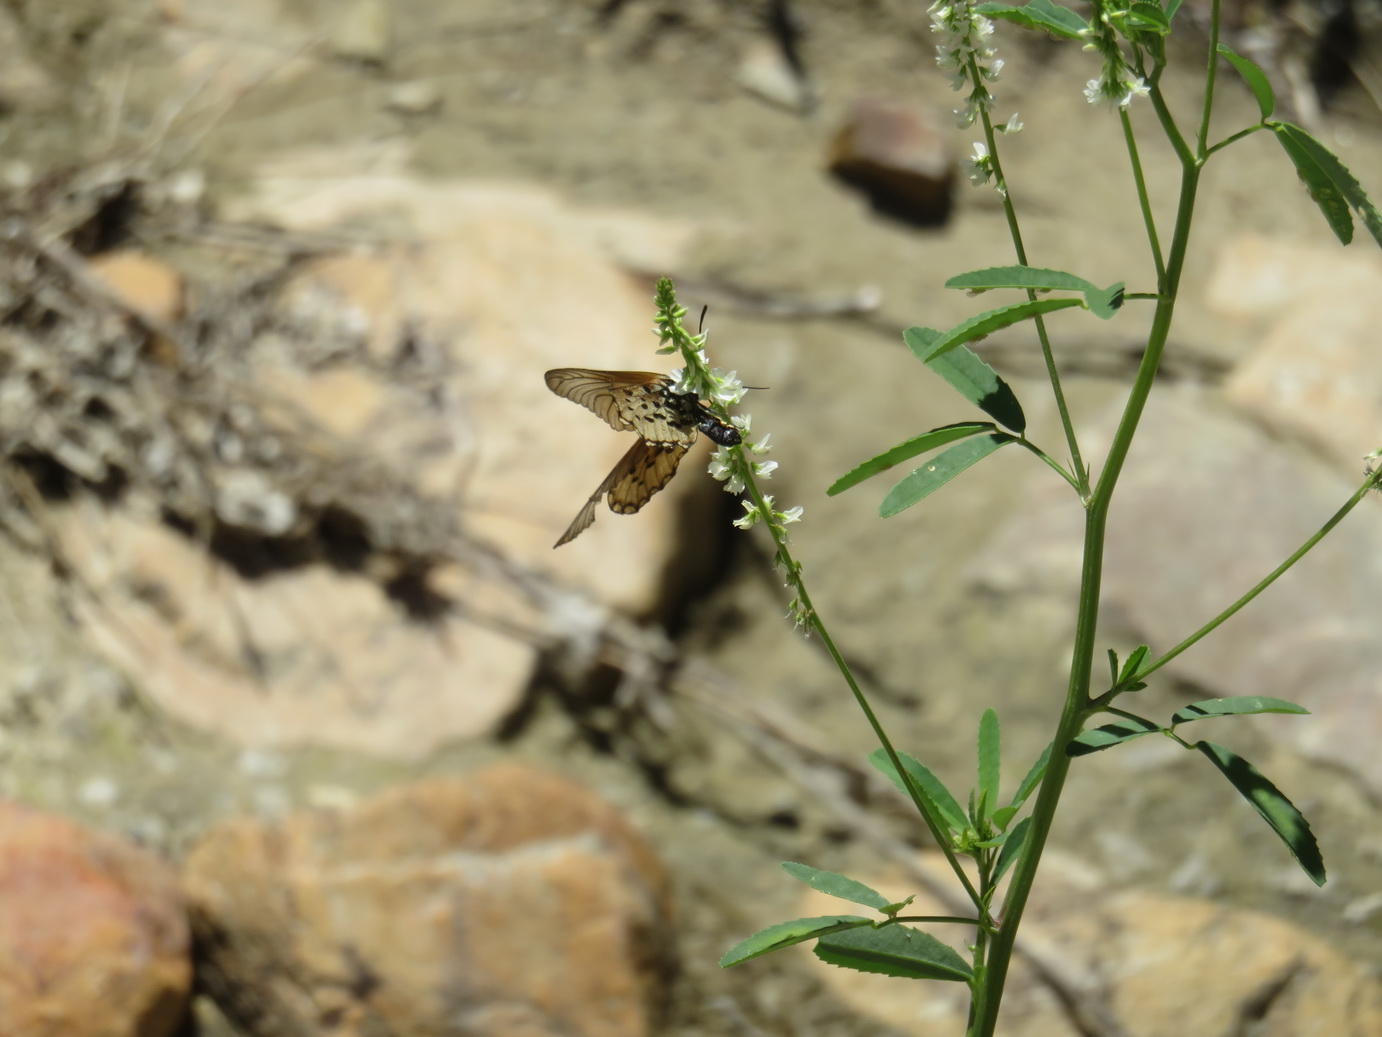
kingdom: Plantae
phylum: Tracheophyta
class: Magnoliopsida
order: Fabales
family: Fabaceae
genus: Melilotus
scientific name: Melilotus albus
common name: White melilot
